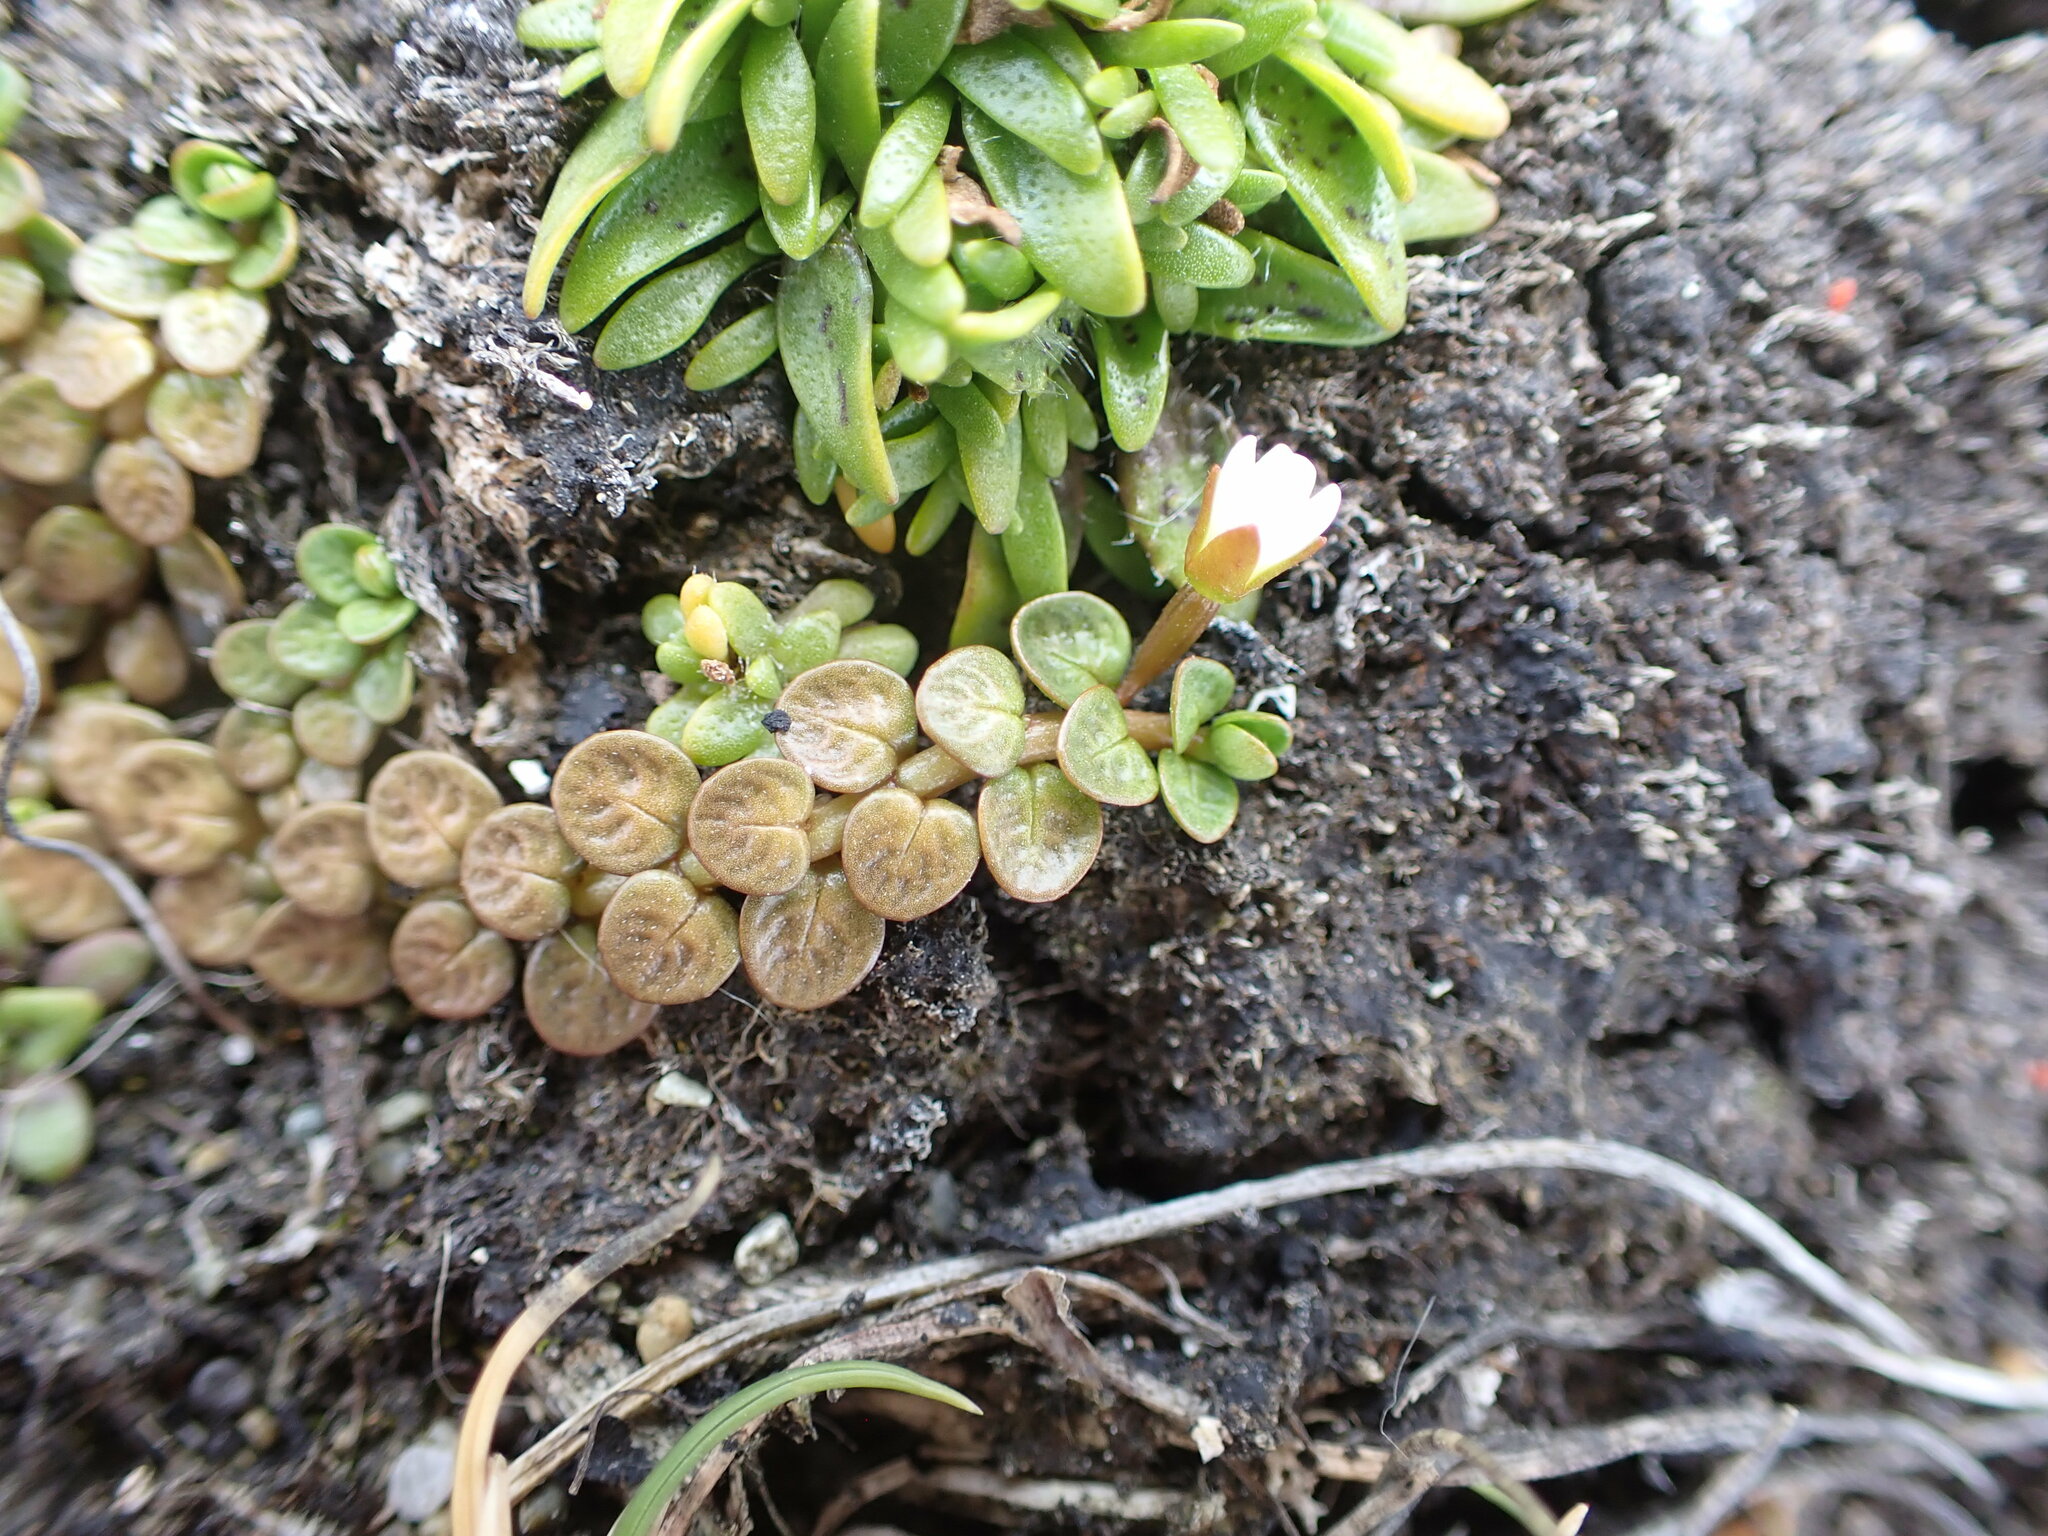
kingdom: Plantae
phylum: Tracheophyta
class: Magnoliopsida
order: Myrtales
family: Onagraceae
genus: Epilobium
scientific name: Epilobium komarovianum
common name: Bronzy willowherb
